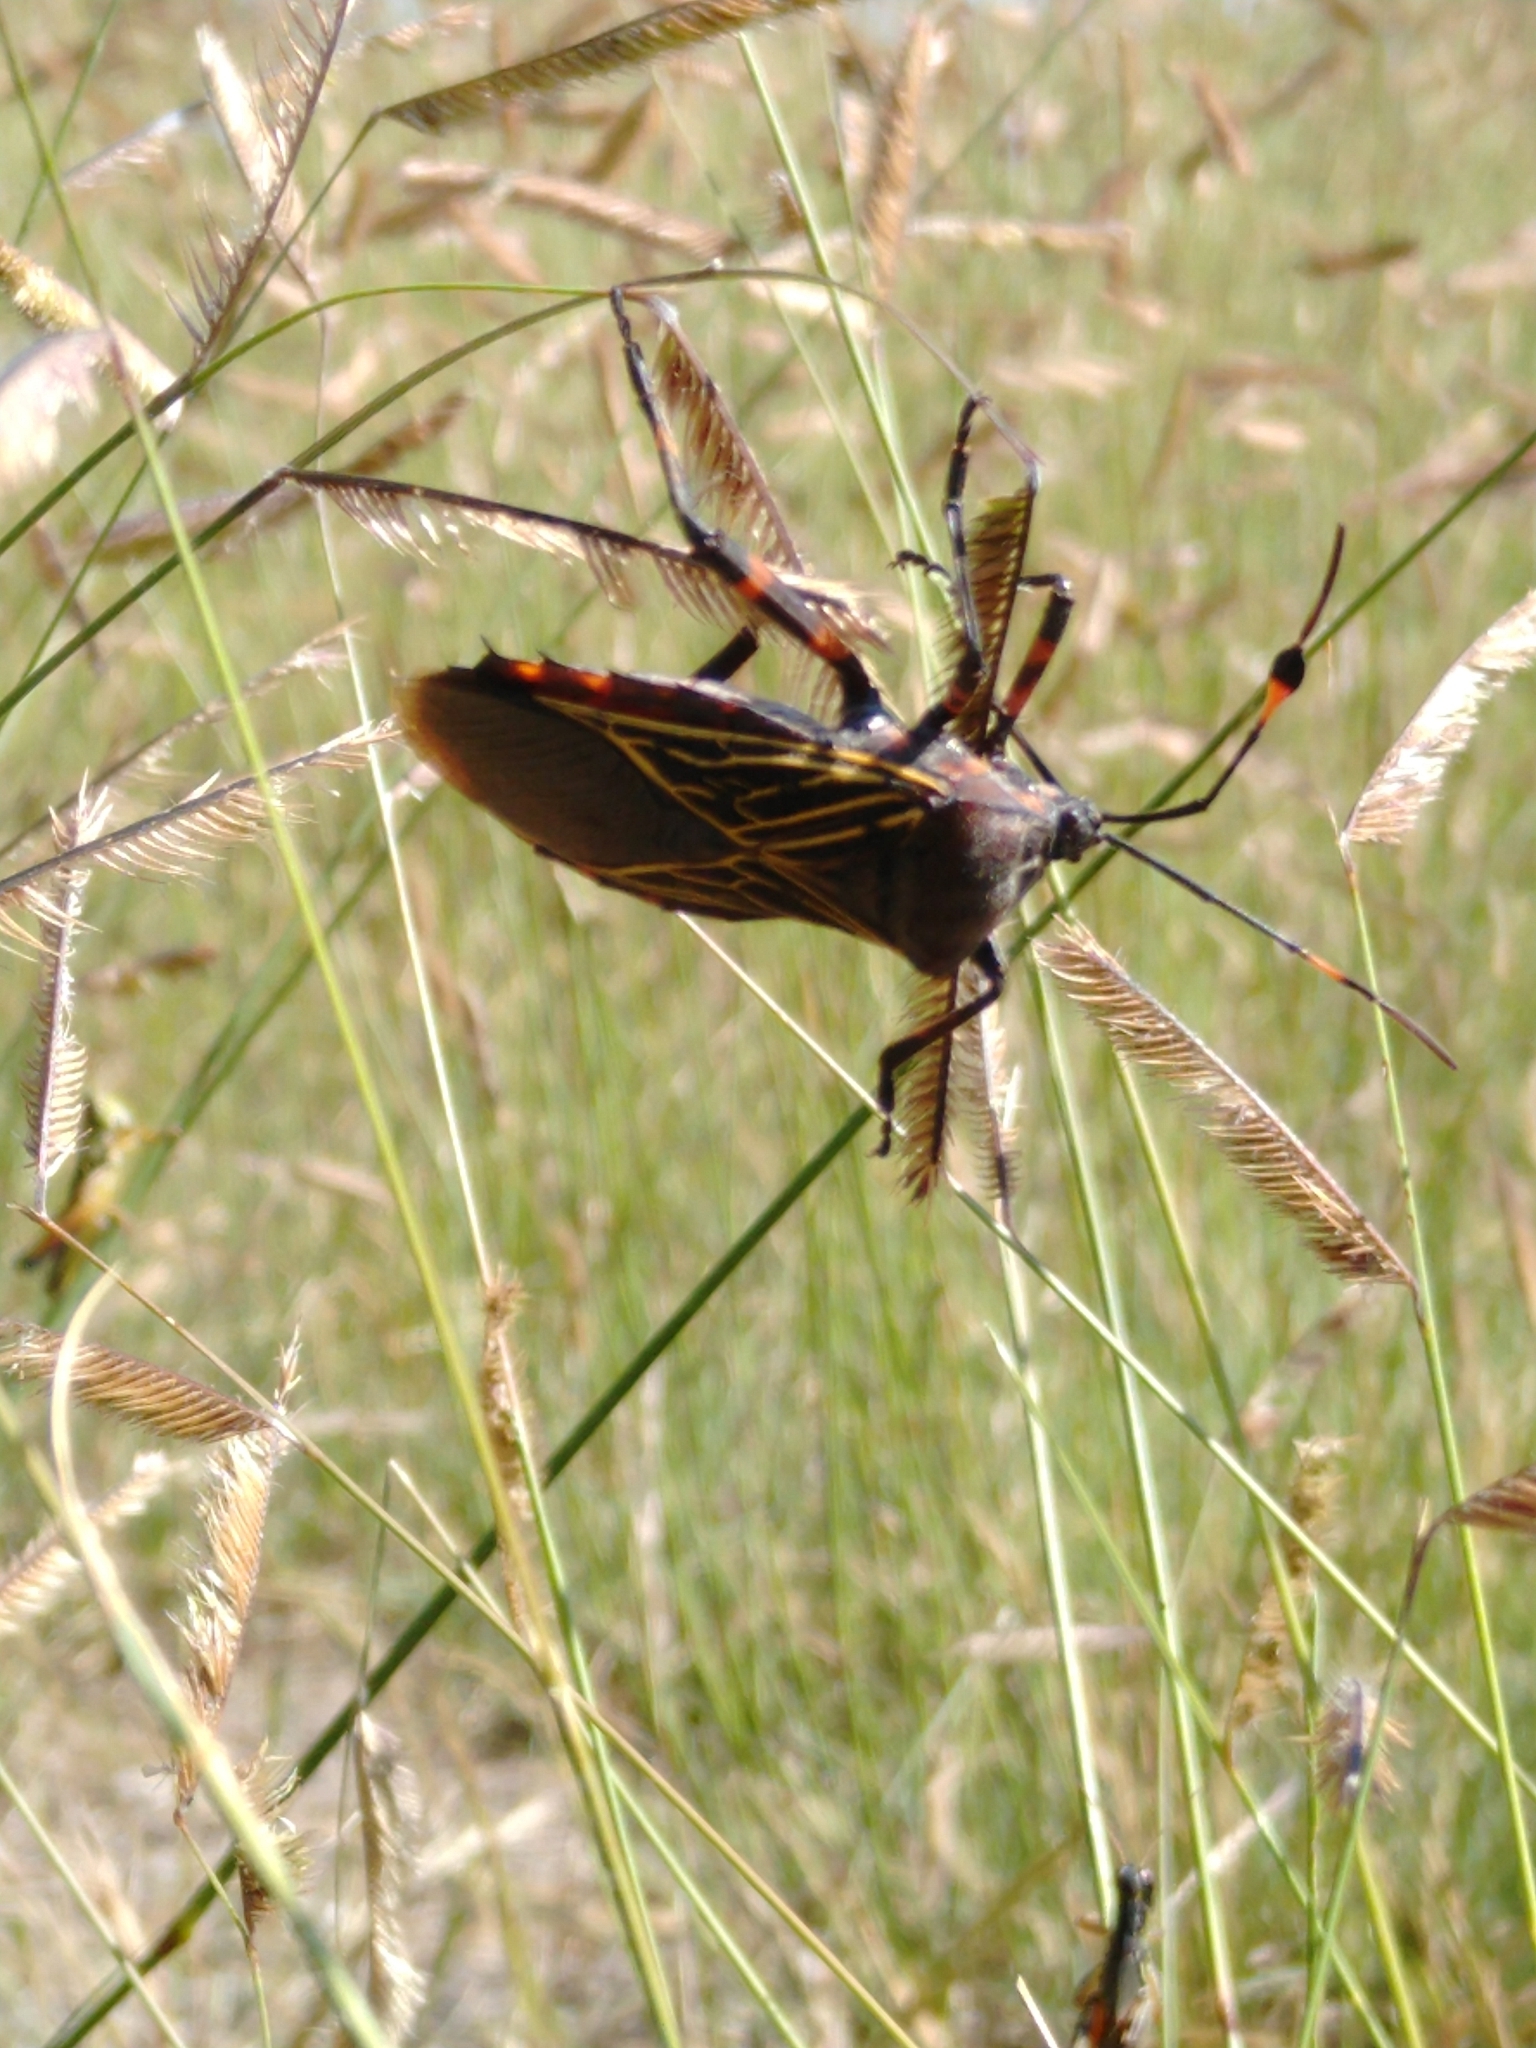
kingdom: Animalia
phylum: Arthropoda
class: Insecta
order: Hemiptera
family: Coreidae
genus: Thasus
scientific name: Thasus
